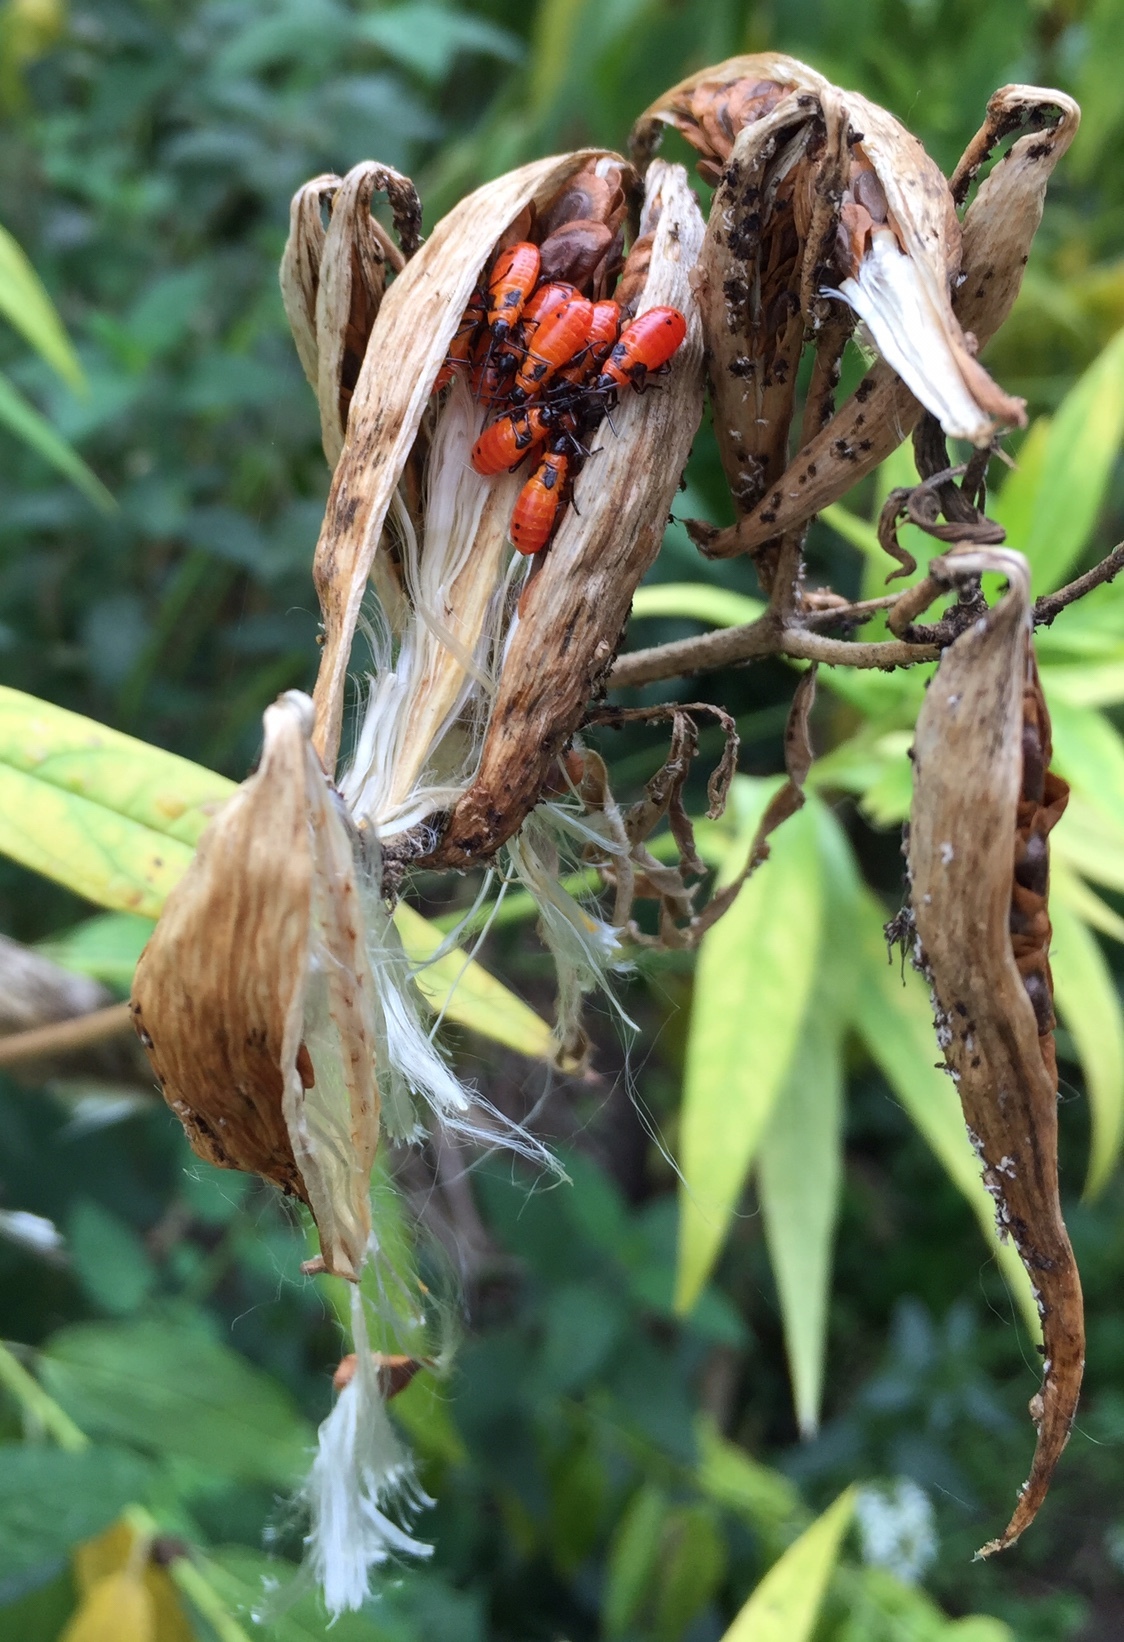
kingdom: Animalia
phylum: Arthropoda
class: Insecta
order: Hemiptera
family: Lygaeidae
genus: Oncopeltus
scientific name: Oncopeltus fasciatus
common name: Large milkweed bug
